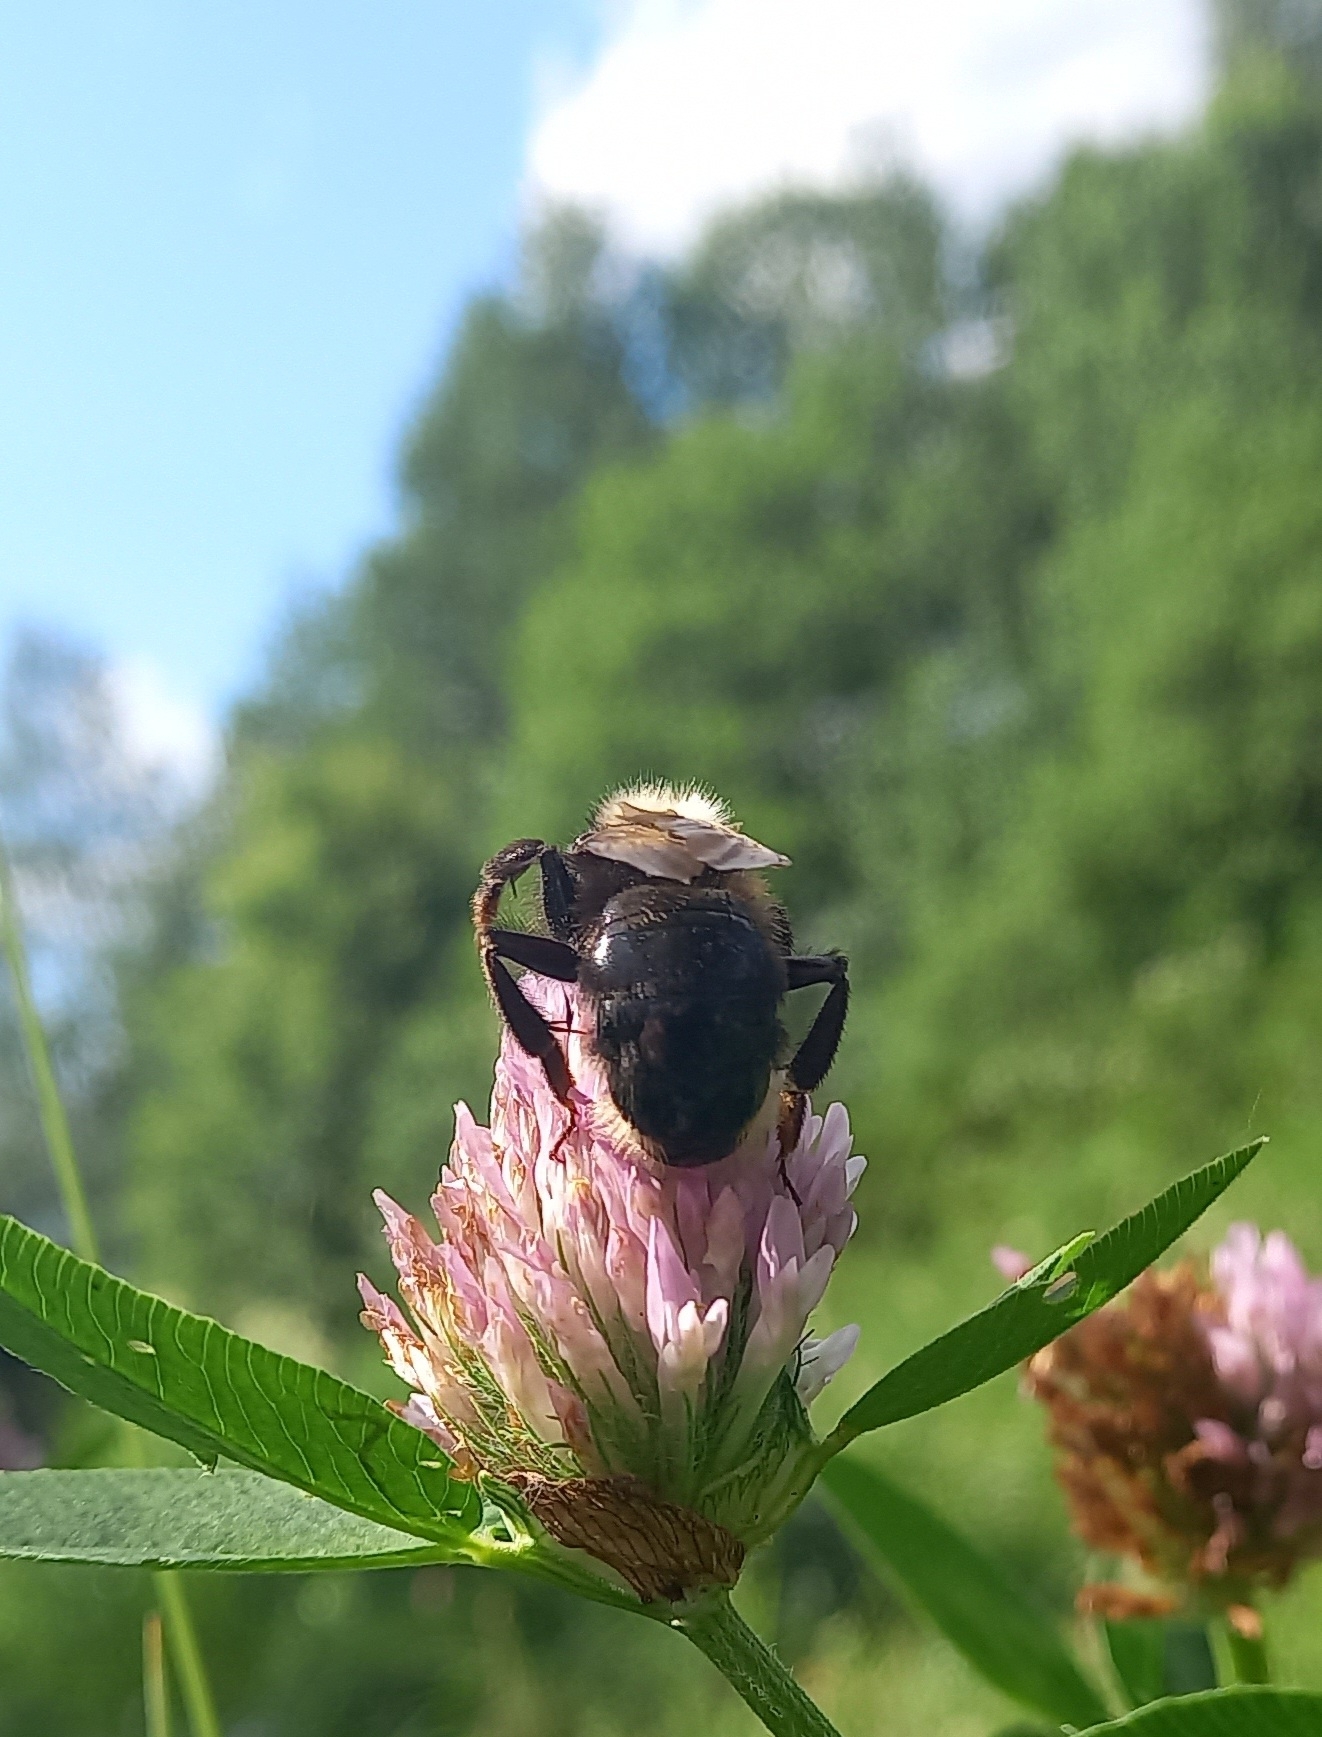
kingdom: Animalia
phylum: Arthropoda
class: Insecta
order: Hymenoptera
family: Apidae
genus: Bombus
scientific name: Bombus campestris
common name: Field cuckoo-bee
